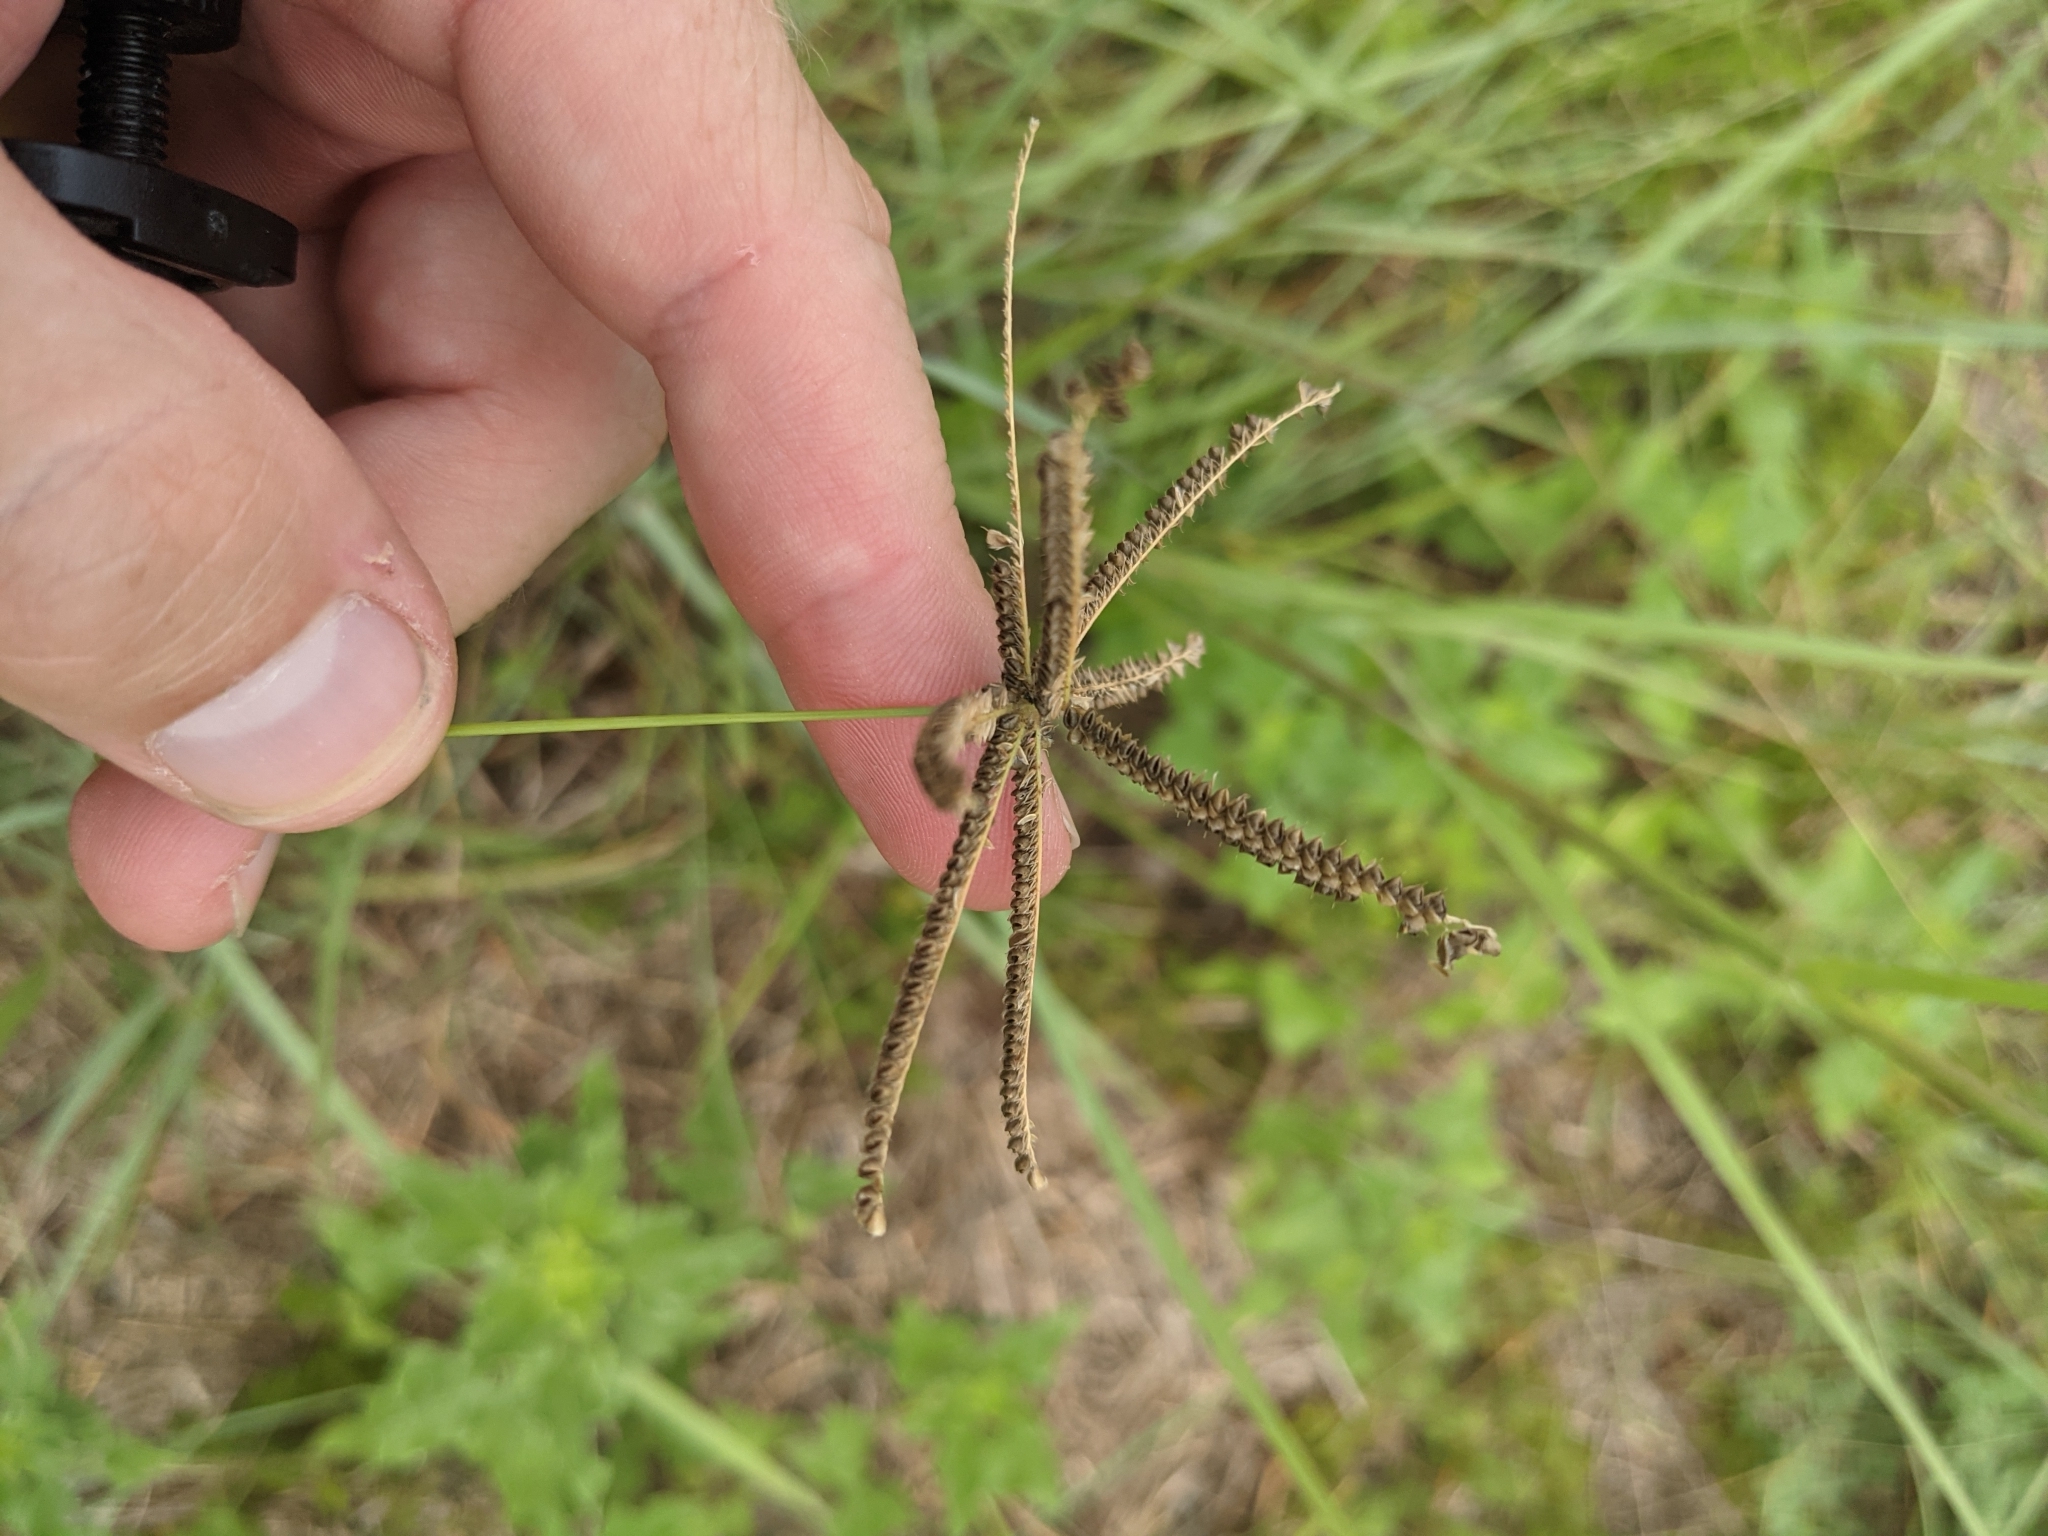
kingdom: Plantae
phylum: Tracheophyta
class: Liliopsida
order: Poales
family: Poaceae
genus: Chloris
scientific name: Chloris cucullata
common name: Hooded windmill grass
